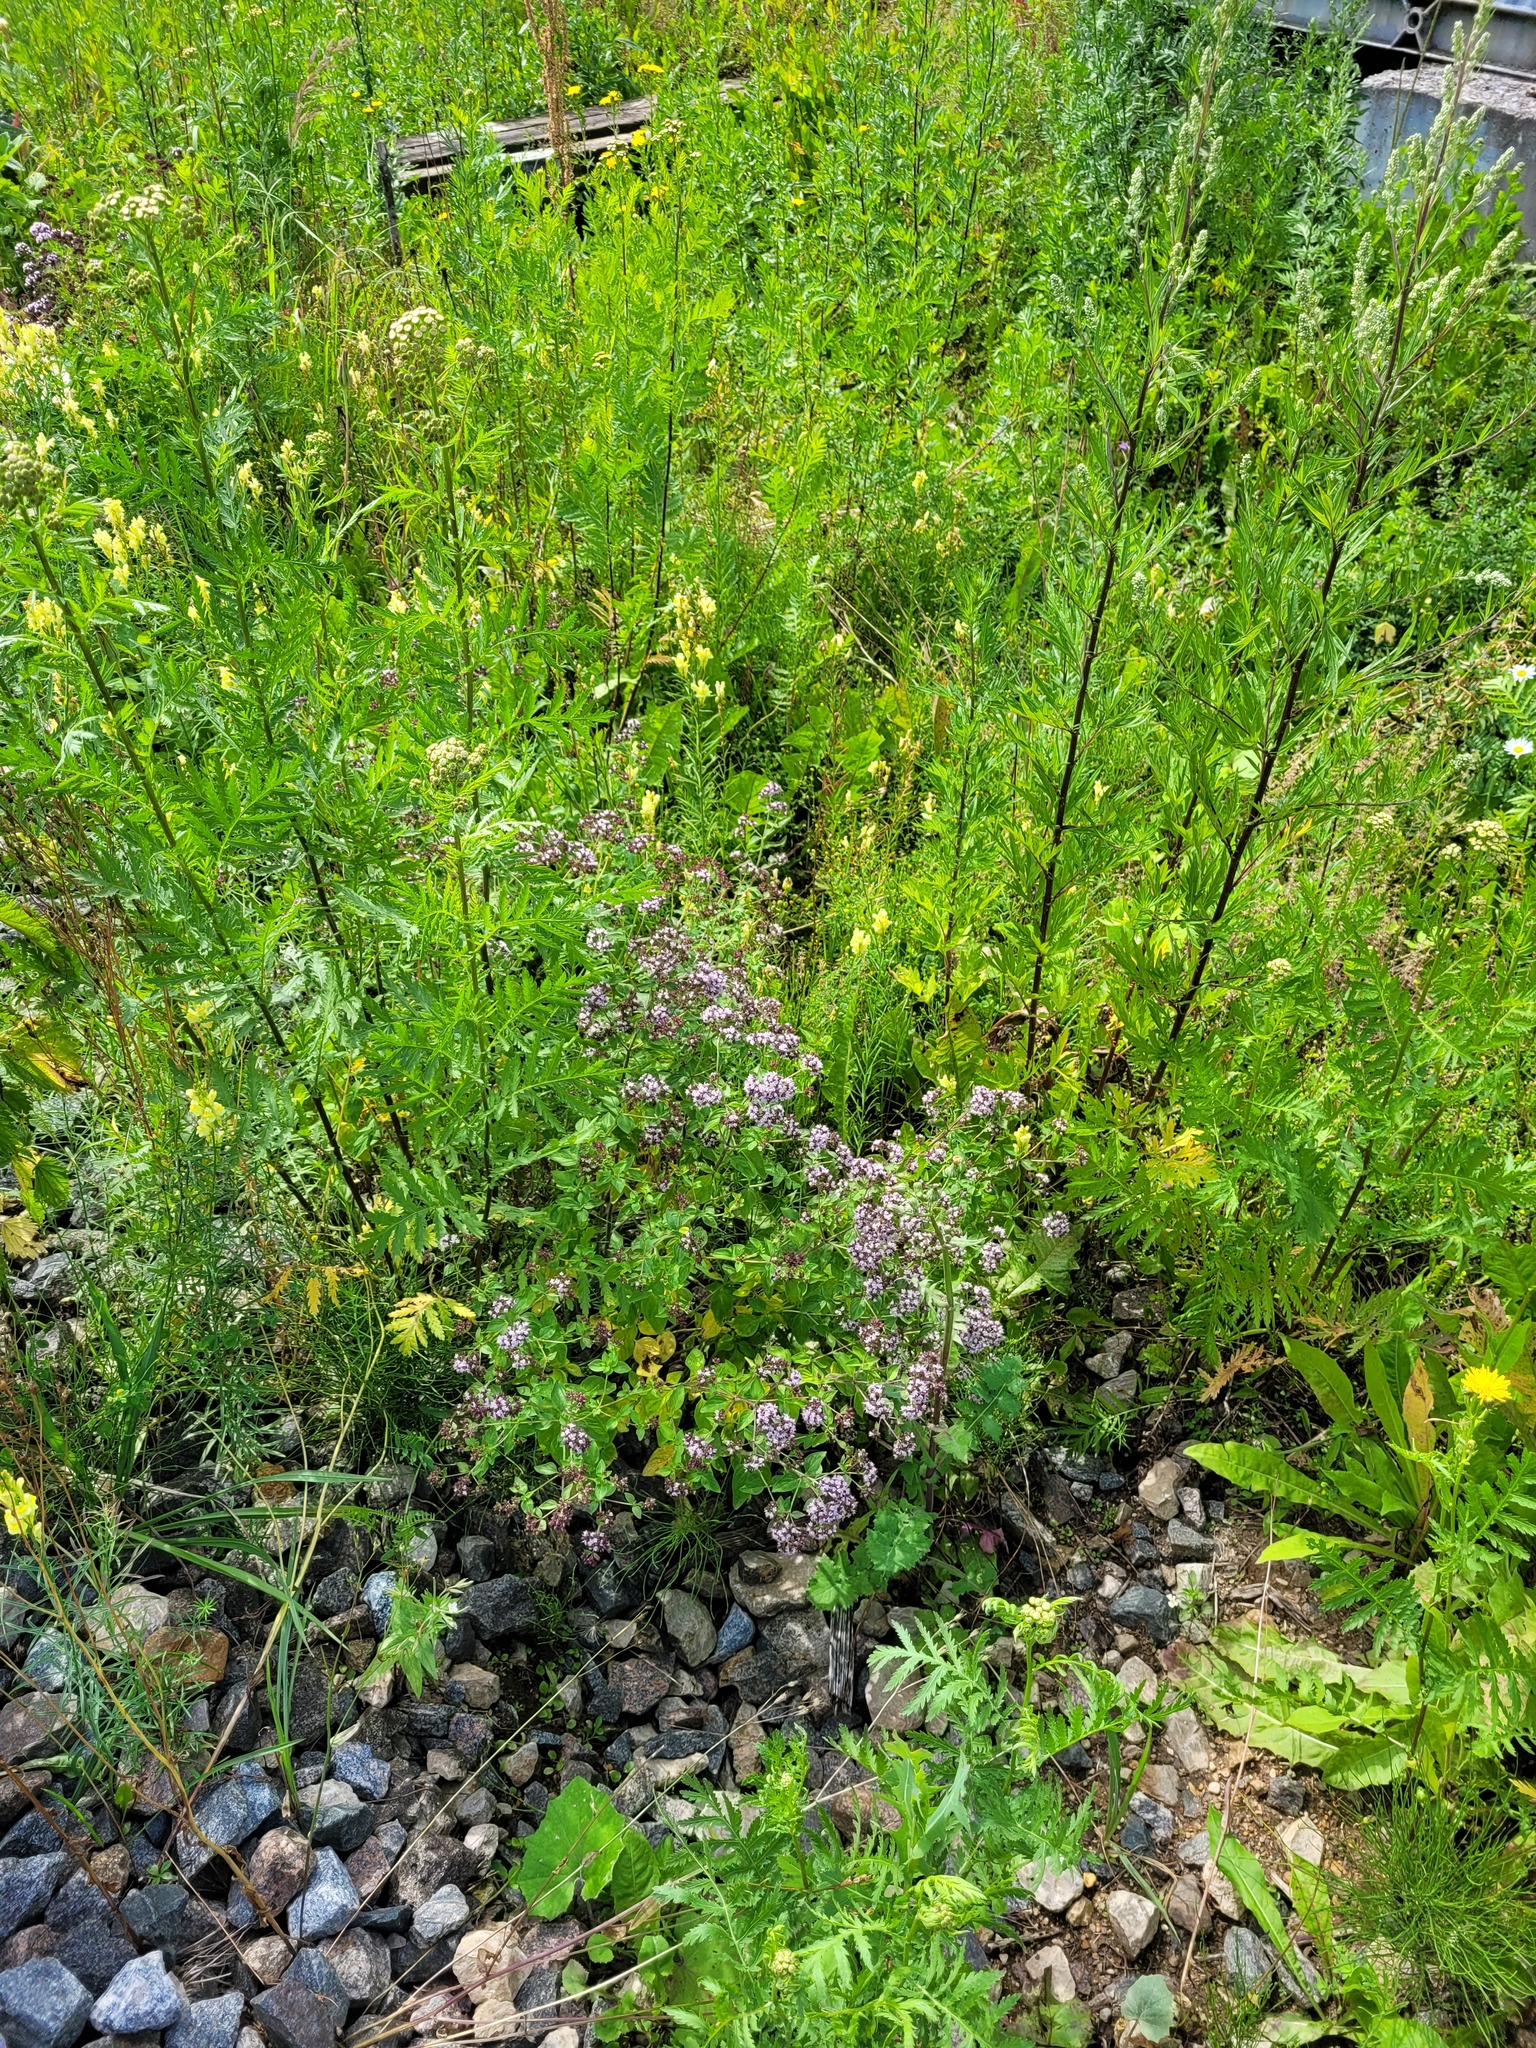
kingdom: Plantae
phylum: Tracheophyta
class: Magnoliopsida
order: Lamiales
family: Lamiaceae
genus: Origanum
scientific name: Origanum vulgare
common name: Wild marjoram
